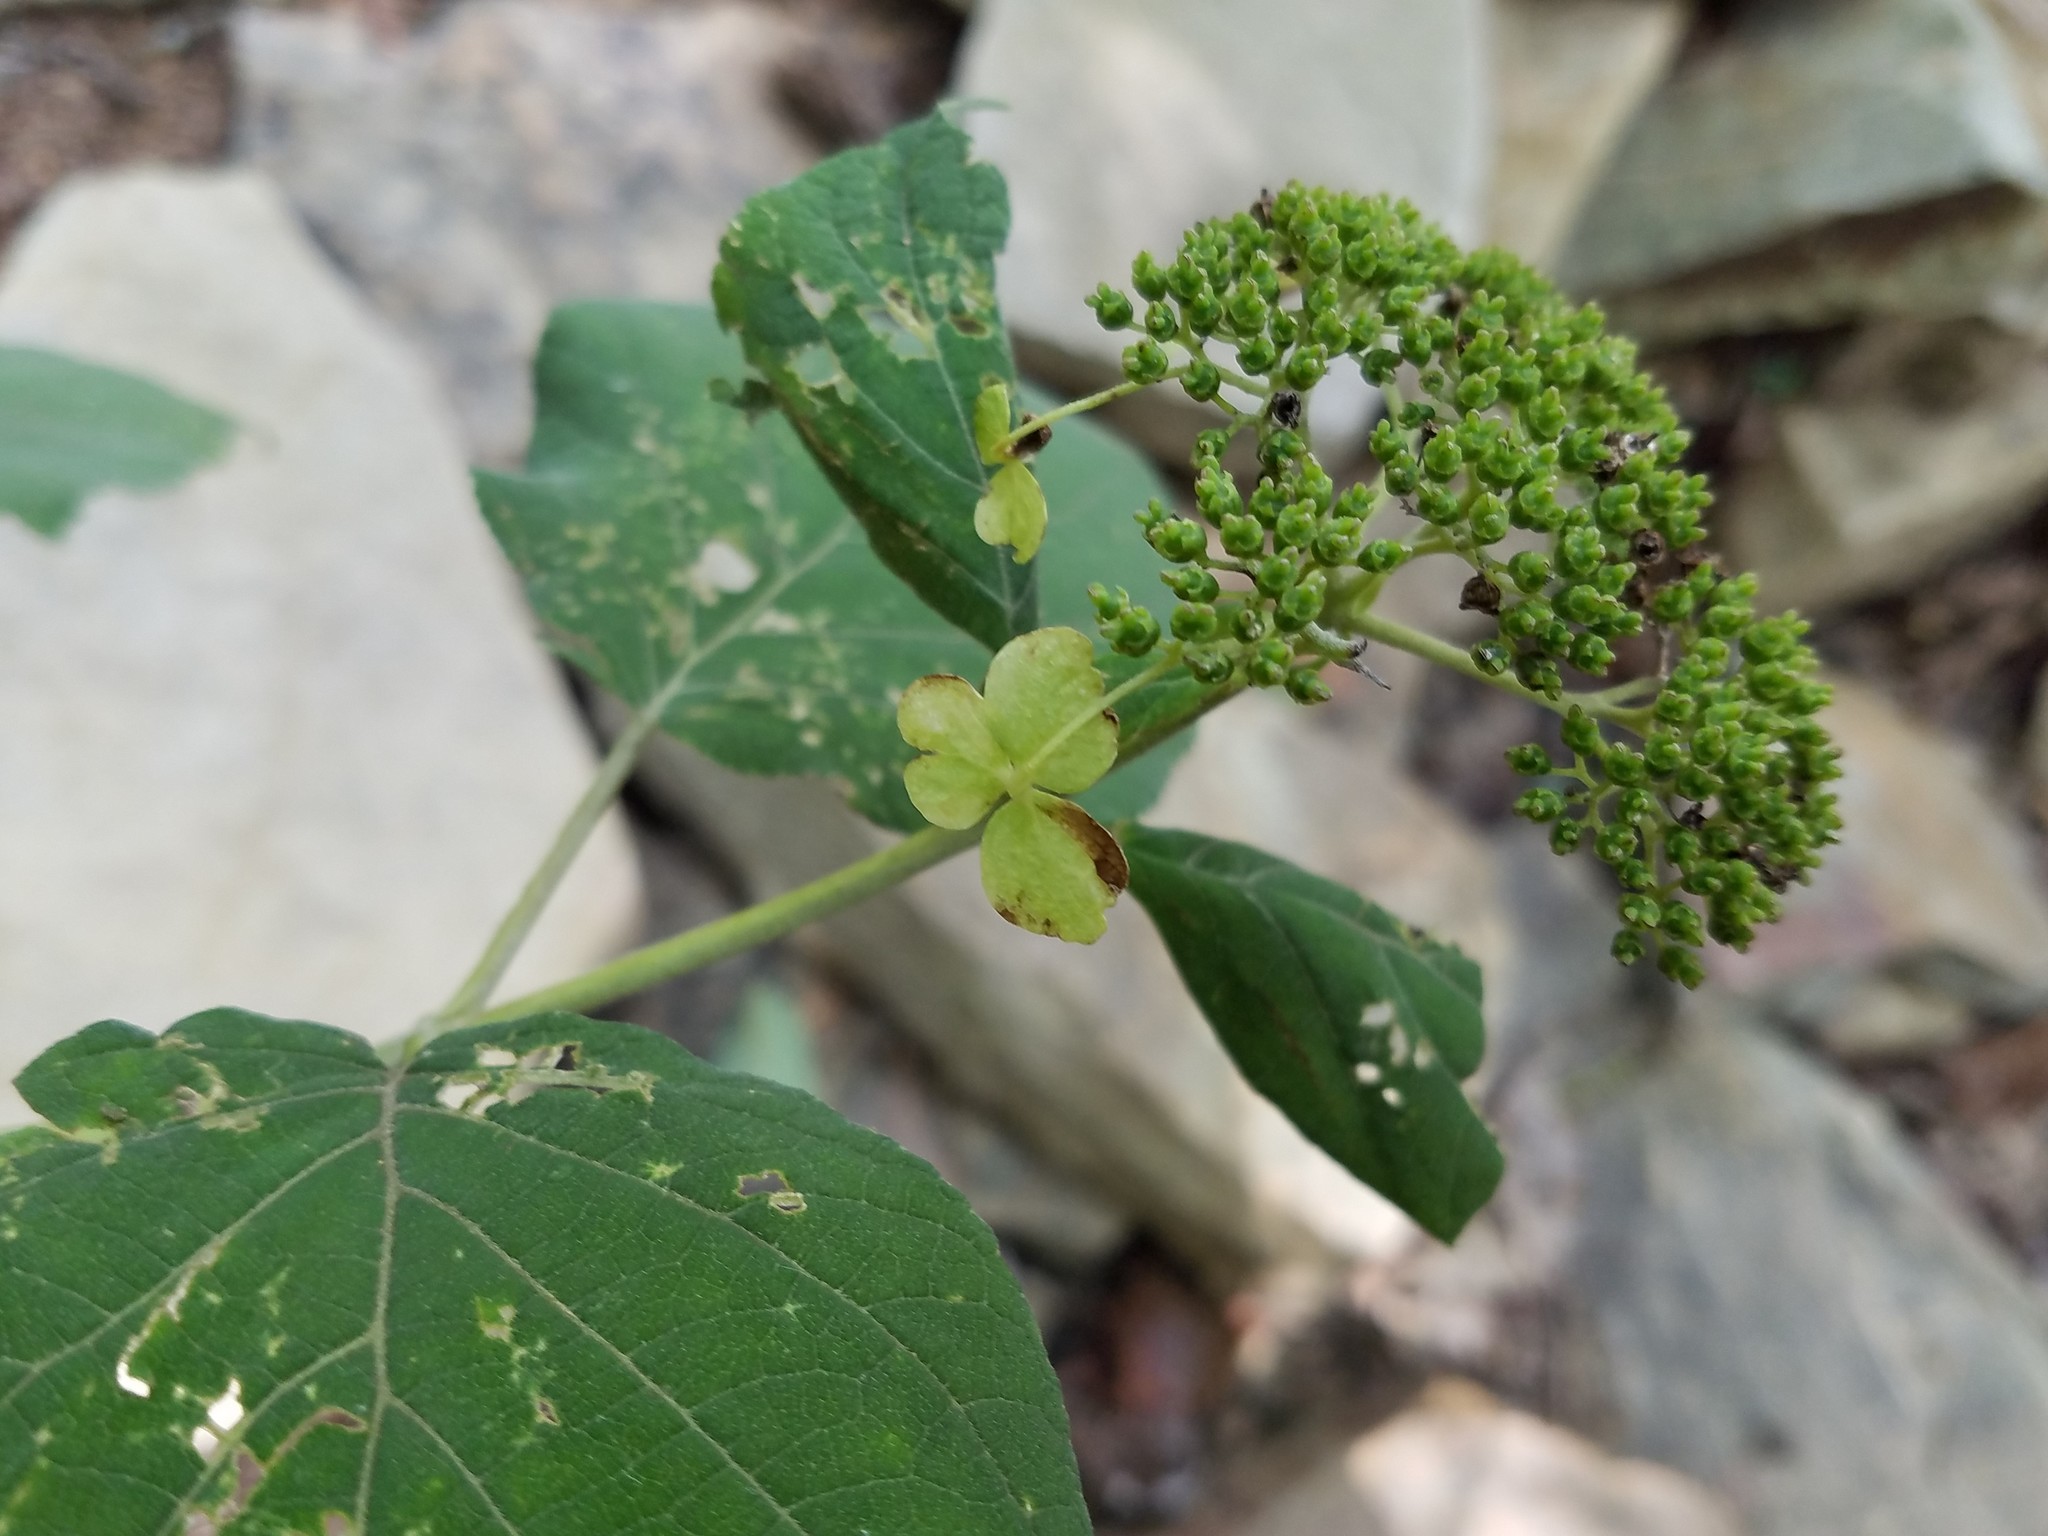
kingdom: Plantae
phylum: Tracheophyta
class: Magnoliopsida
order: Cornales
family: Hydrangeaceae
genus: Hydrangea
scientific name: Hydrangea arborescens
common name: Sevenbark
